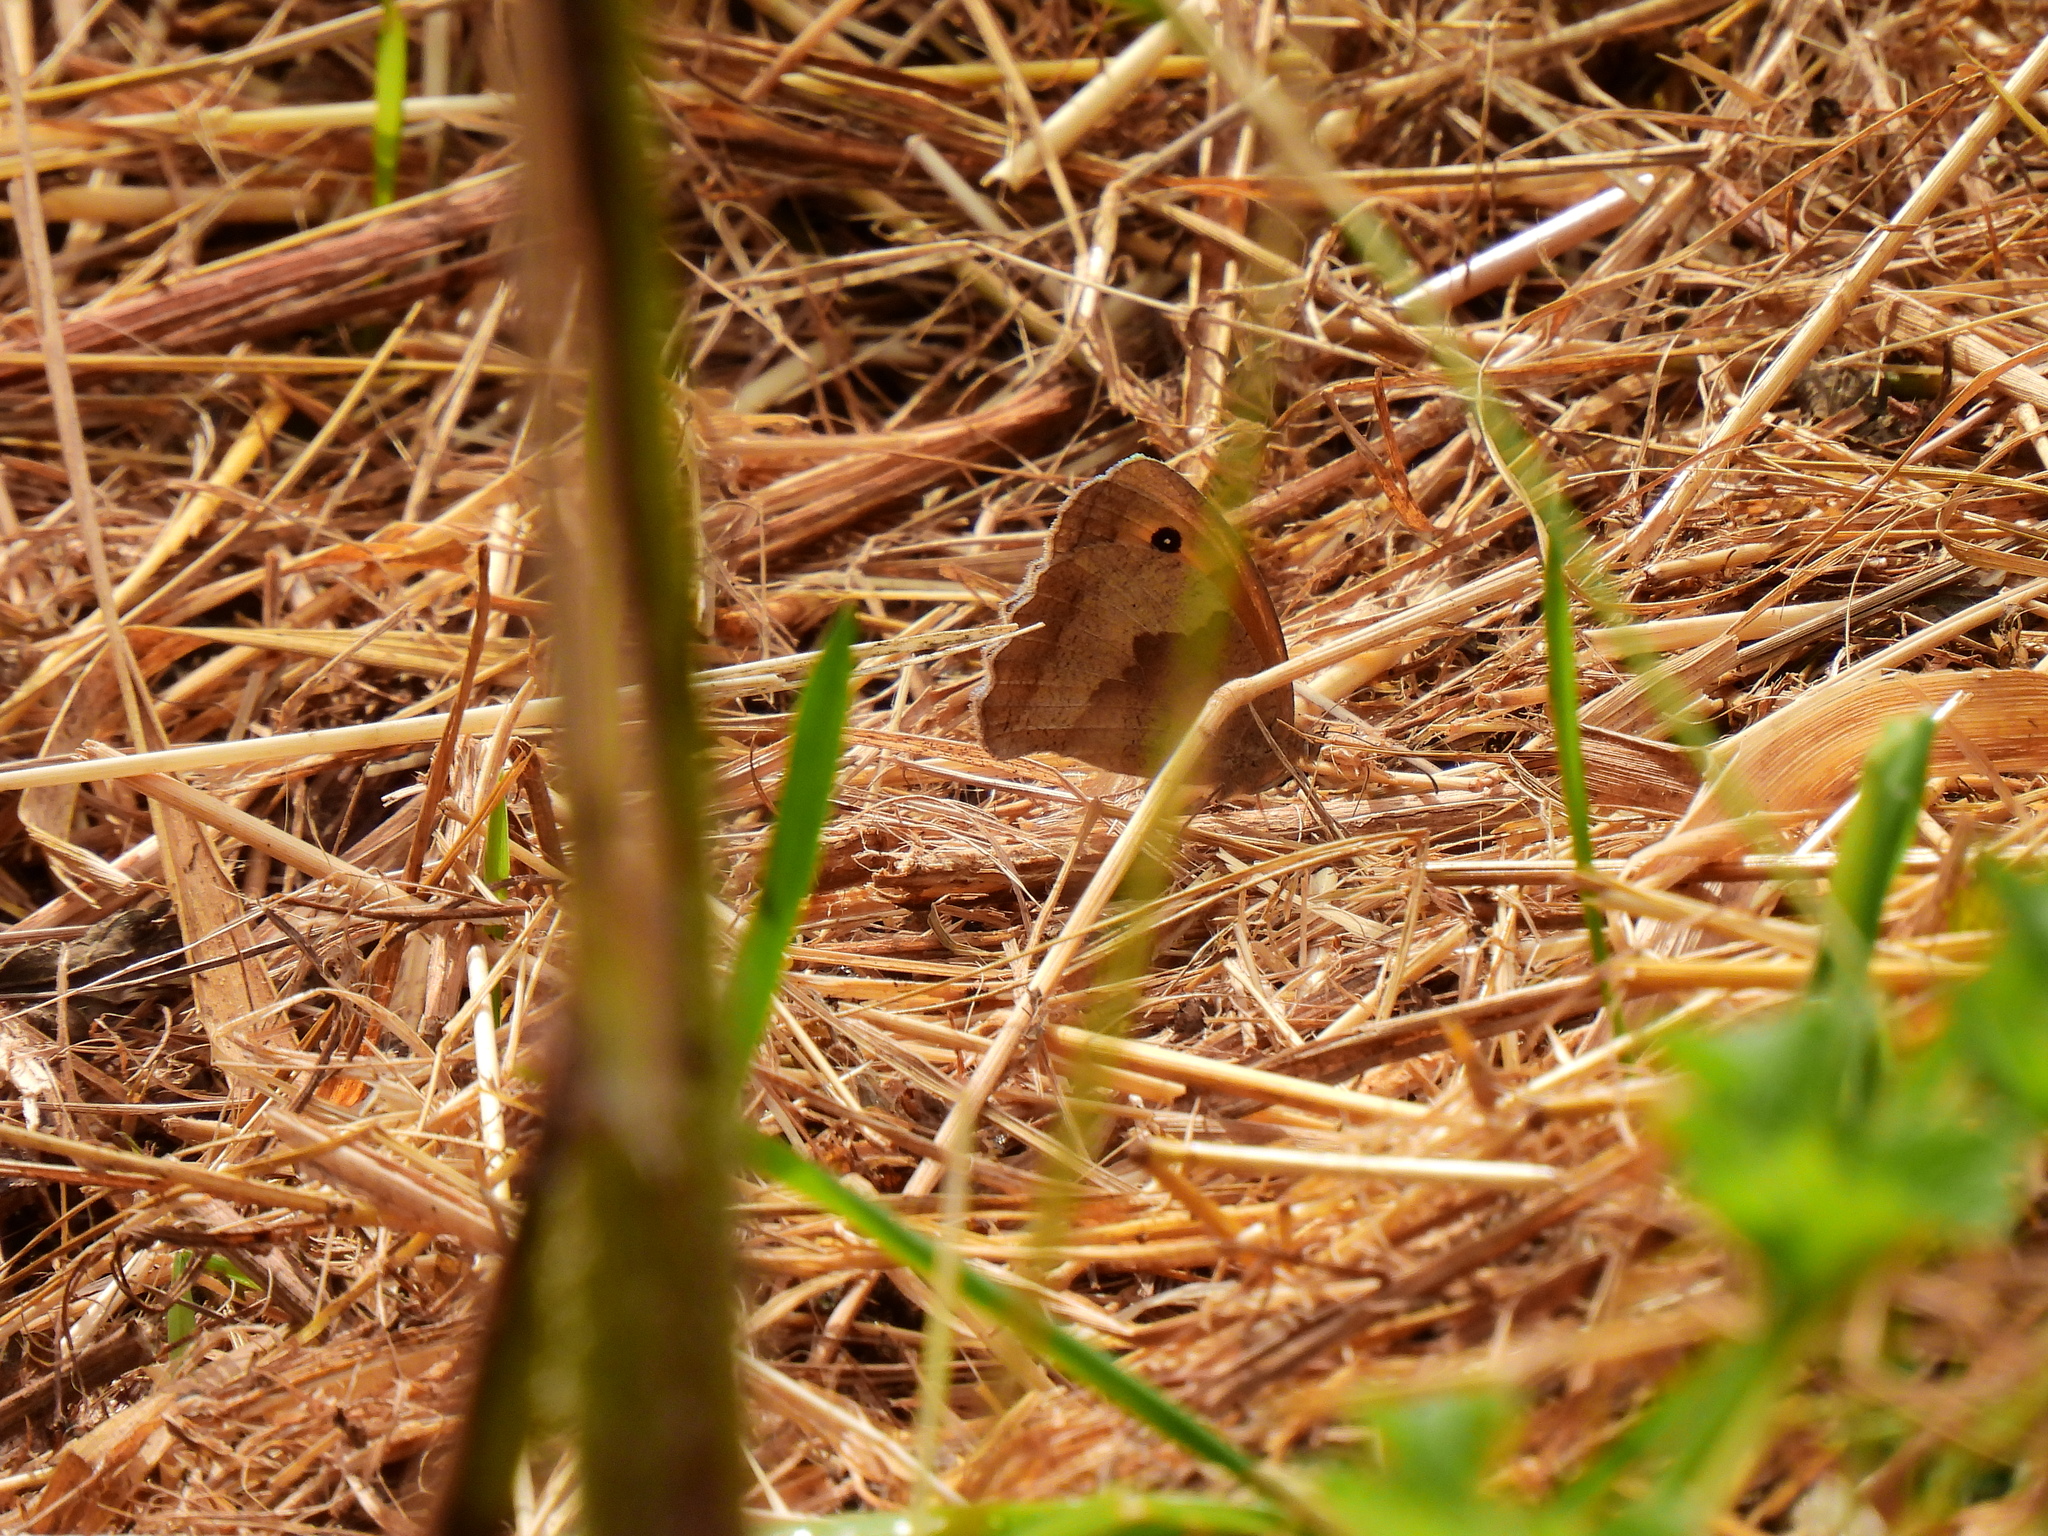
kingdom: Animalia
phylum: Arthropoda
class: Insecta
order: Lepidoptera
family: Nymphalidae
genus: Maniola
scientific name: Maniola jurtina
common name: Meadow brown
